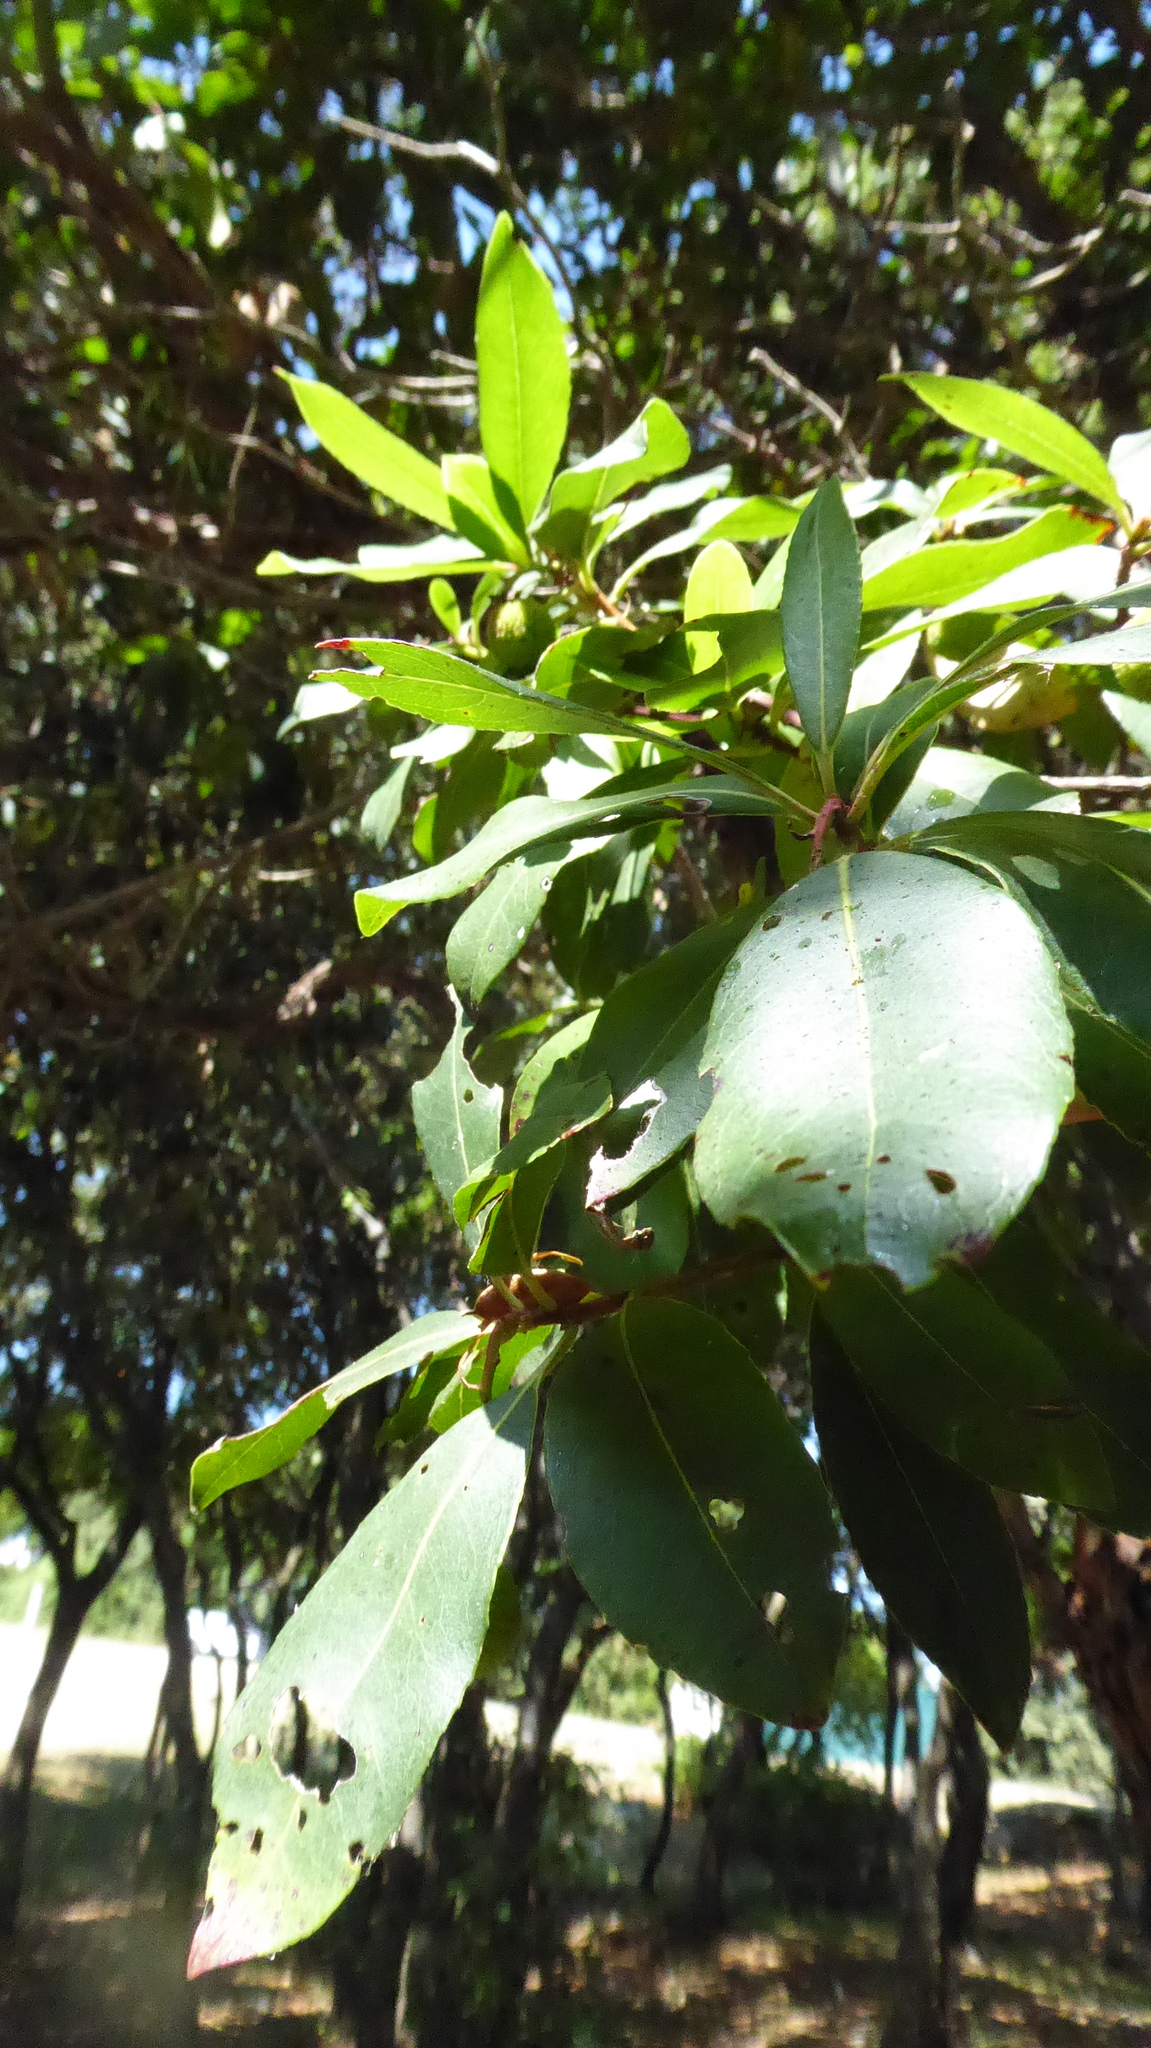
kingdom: Plantae
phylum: Tracheophyta
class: Magnoliopsida
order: Ericales
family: Ericaceae
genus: Arbutus
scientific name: Arbutus unedo
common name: Strawberry-tree
